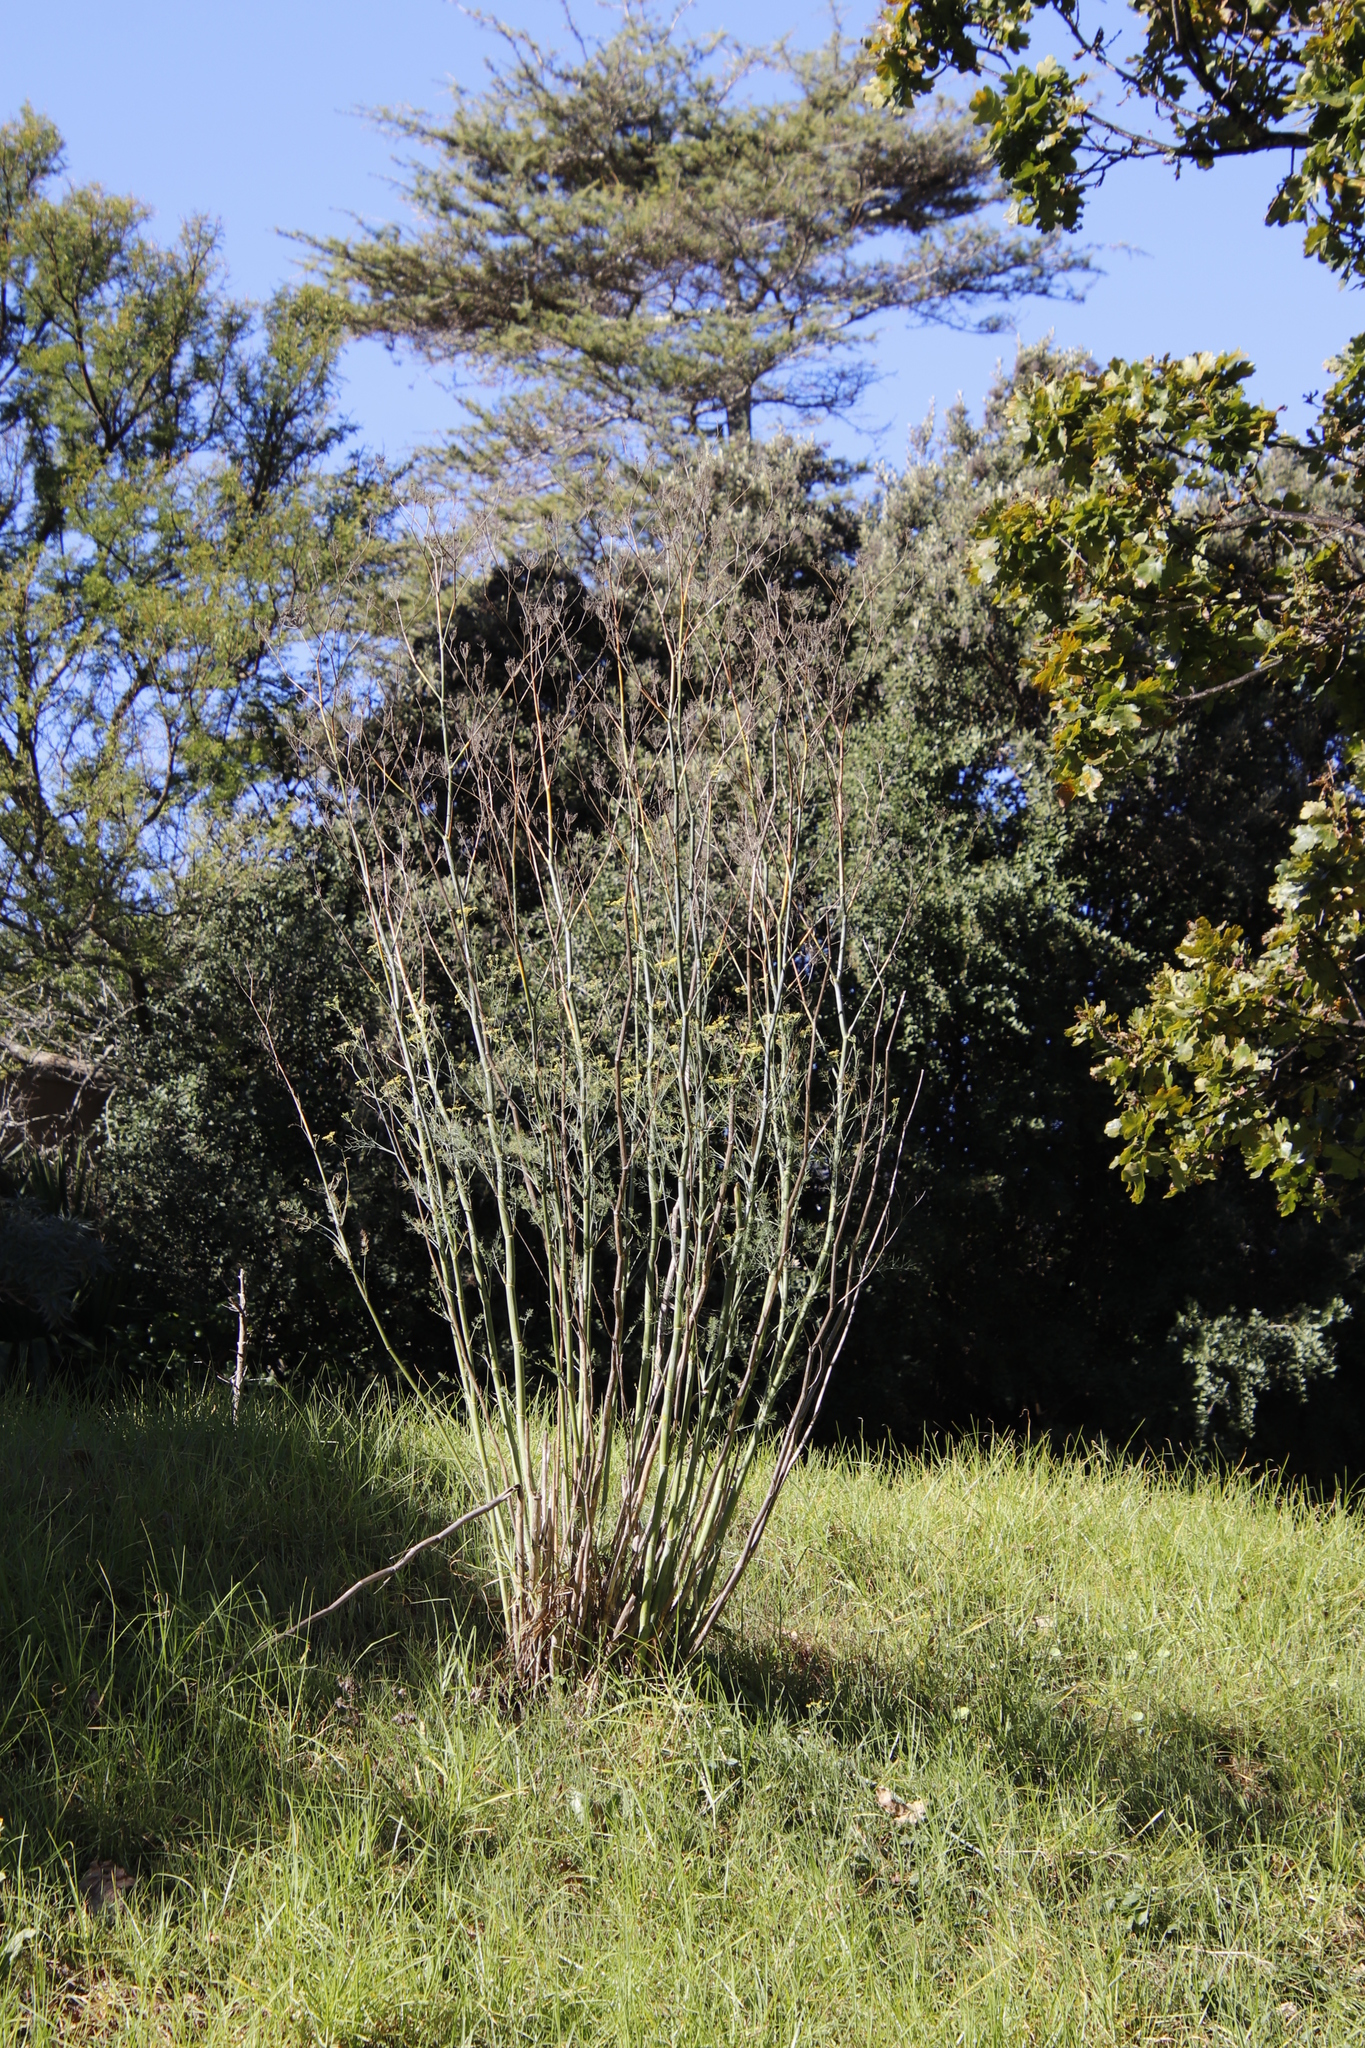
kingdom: Plantae
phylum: Tracheophyta
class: Magnoliopsida
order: Apiales
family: Apiaceae
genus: Foeniculum
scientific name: Foeniculum vulgare
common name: Fennel
